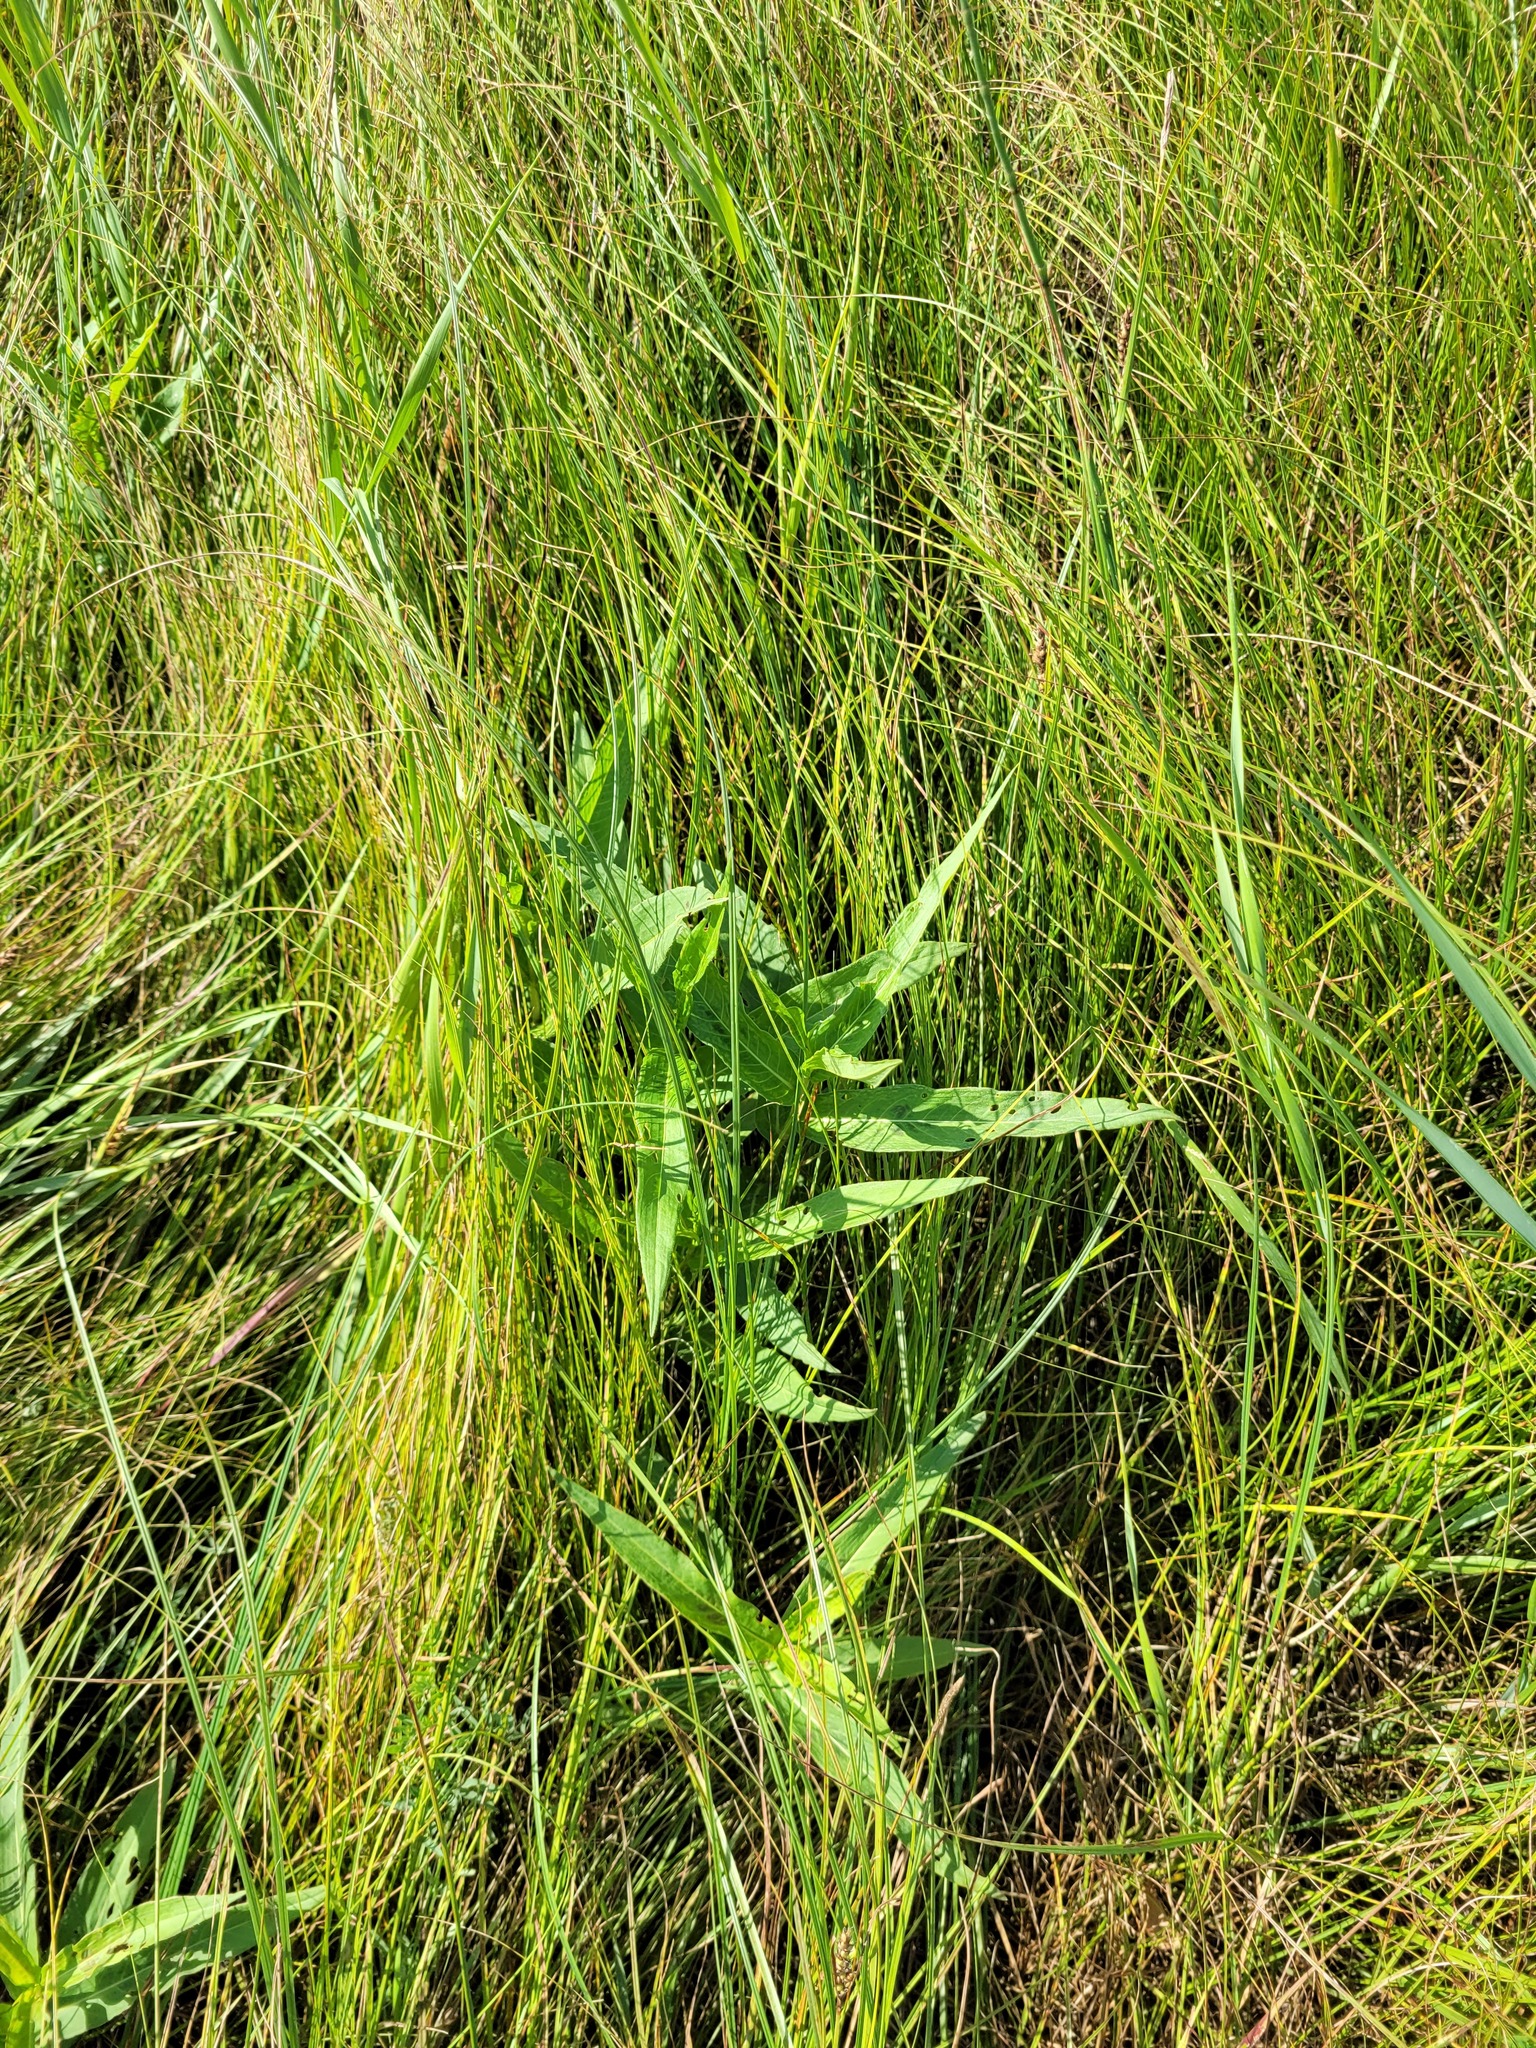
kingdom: Plantae
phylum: Tracheophyta
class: Magnoliopsida
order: Caryophyllales
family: Polygonaceae
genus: Persicaria
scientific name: Persicaria amphibia
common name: Amphibious bistort
